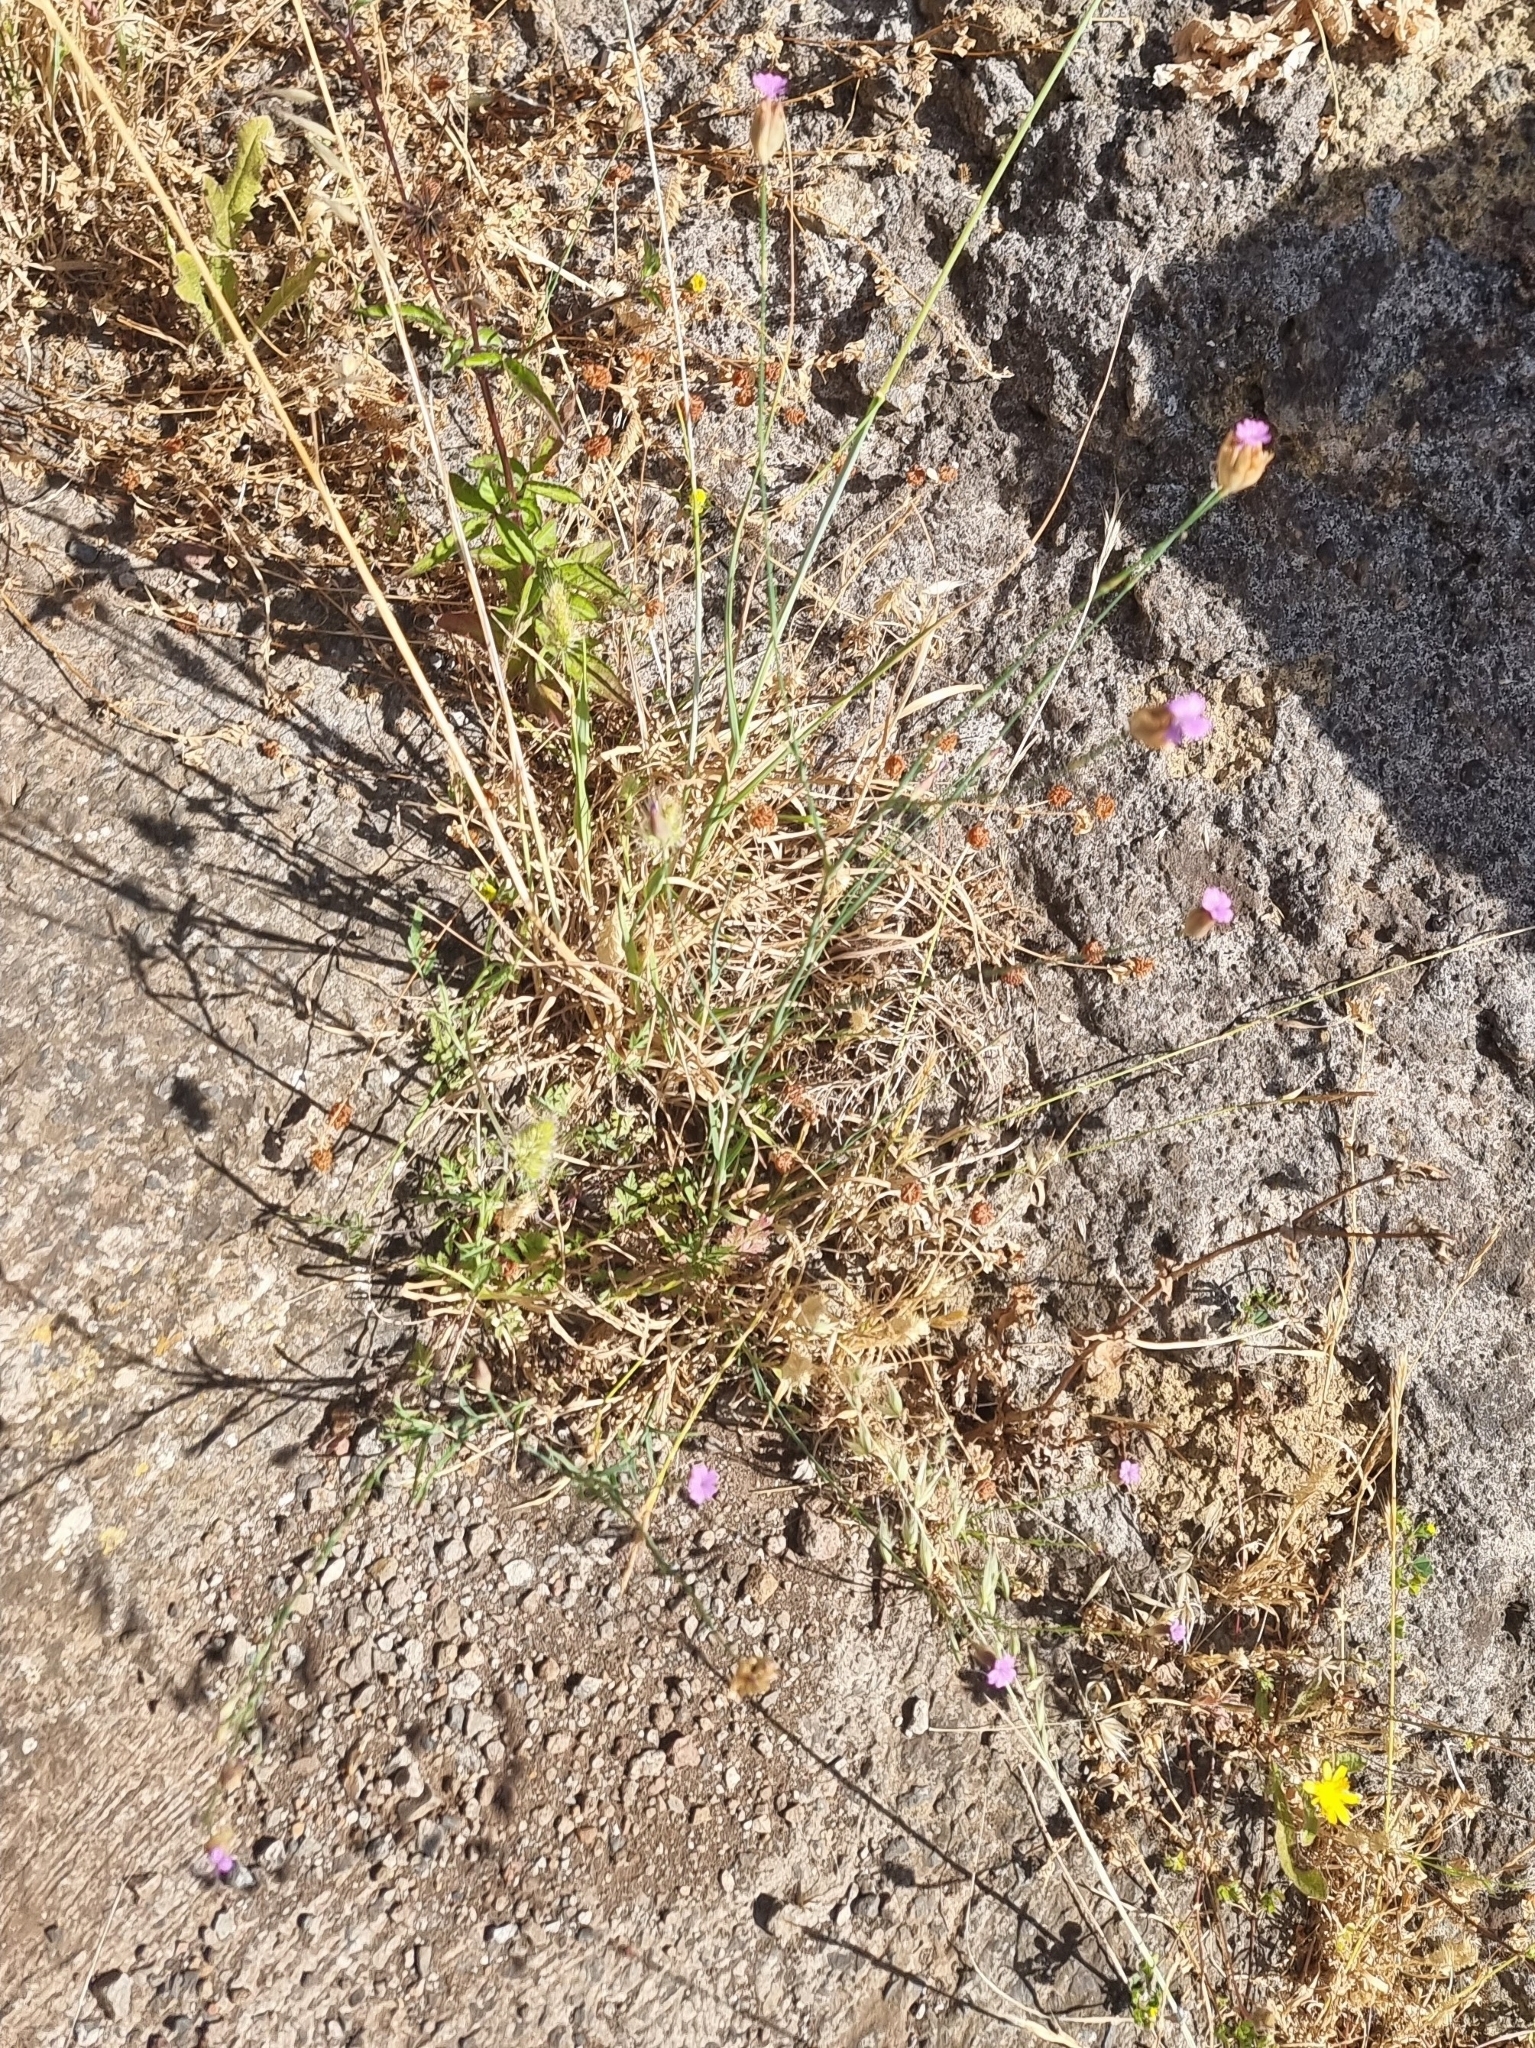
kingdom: Plantae
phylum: Tracheophyta
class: Magnoliopsida
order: Caryophyllales
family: Caryophyllaceae
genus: Petrorhagia
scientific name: Petrorhagia nanteuilii
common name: Proliferous pink
